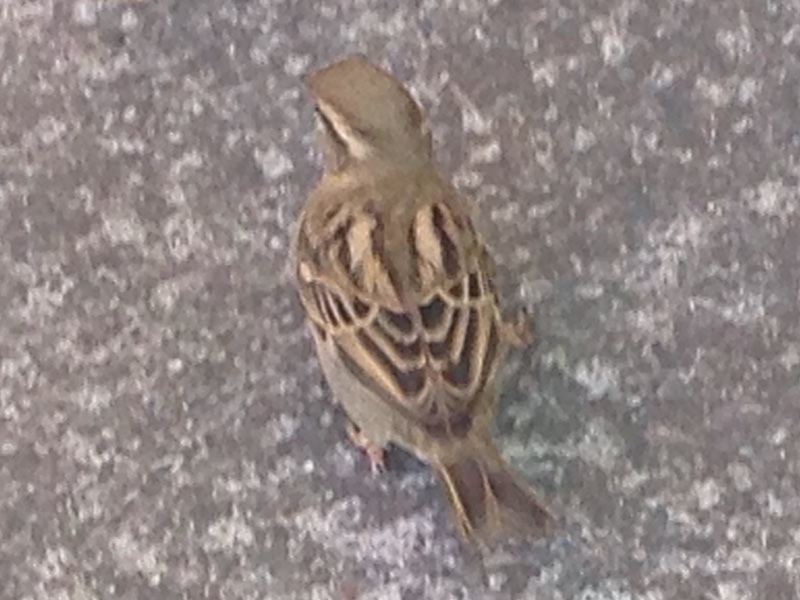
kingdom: Animalia
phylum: Chordata
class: Aves
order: Passeriformes
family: Passeridae
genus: Passer
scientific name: Passer domesticus
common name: House sparrow
